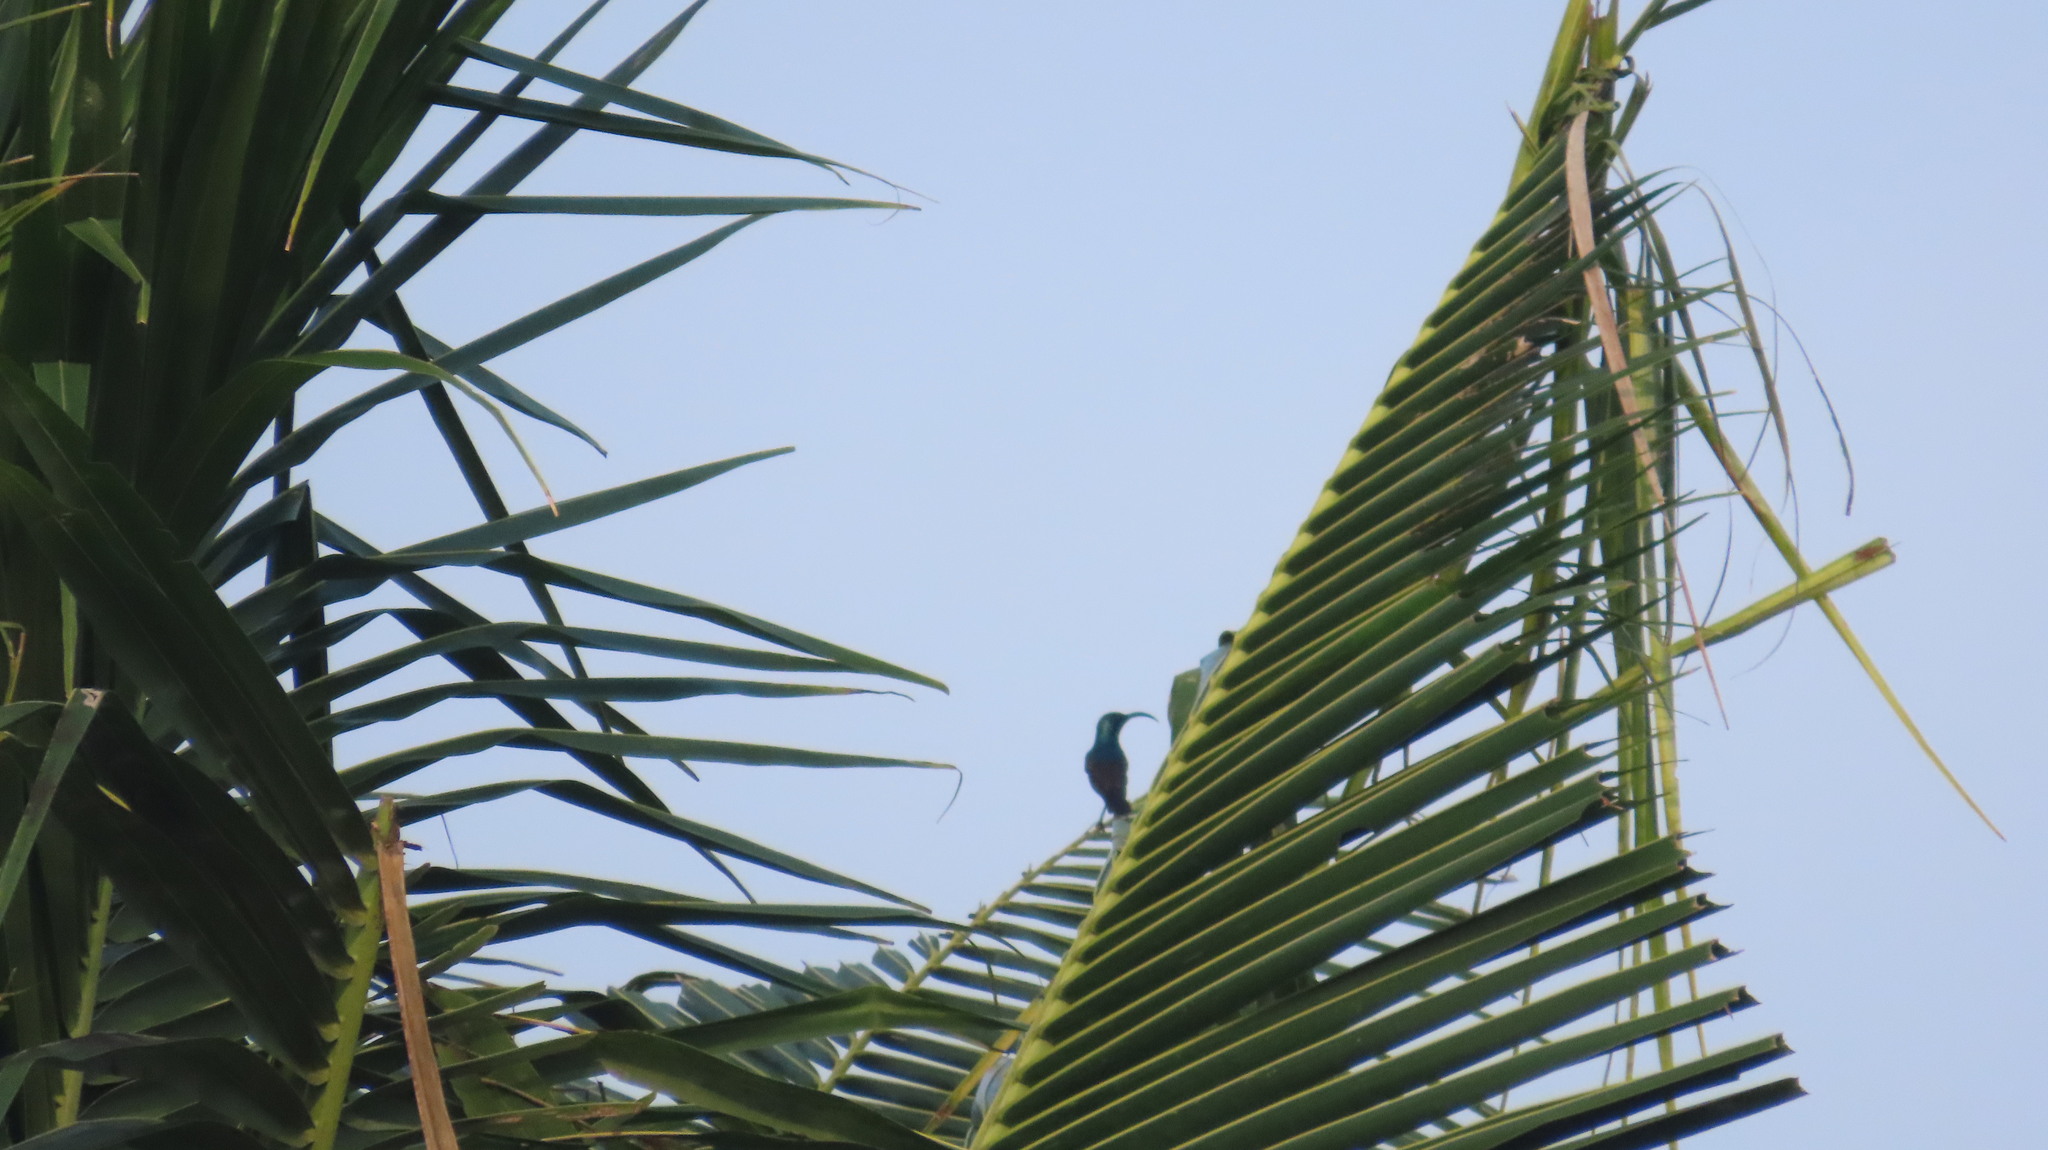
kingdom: Animalia
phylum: Chordata
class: Aves
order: Passeriformes
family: Nectariniidae
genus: Cinnyris
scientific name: Cinnyris lotenius
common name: Loten's sunbird
